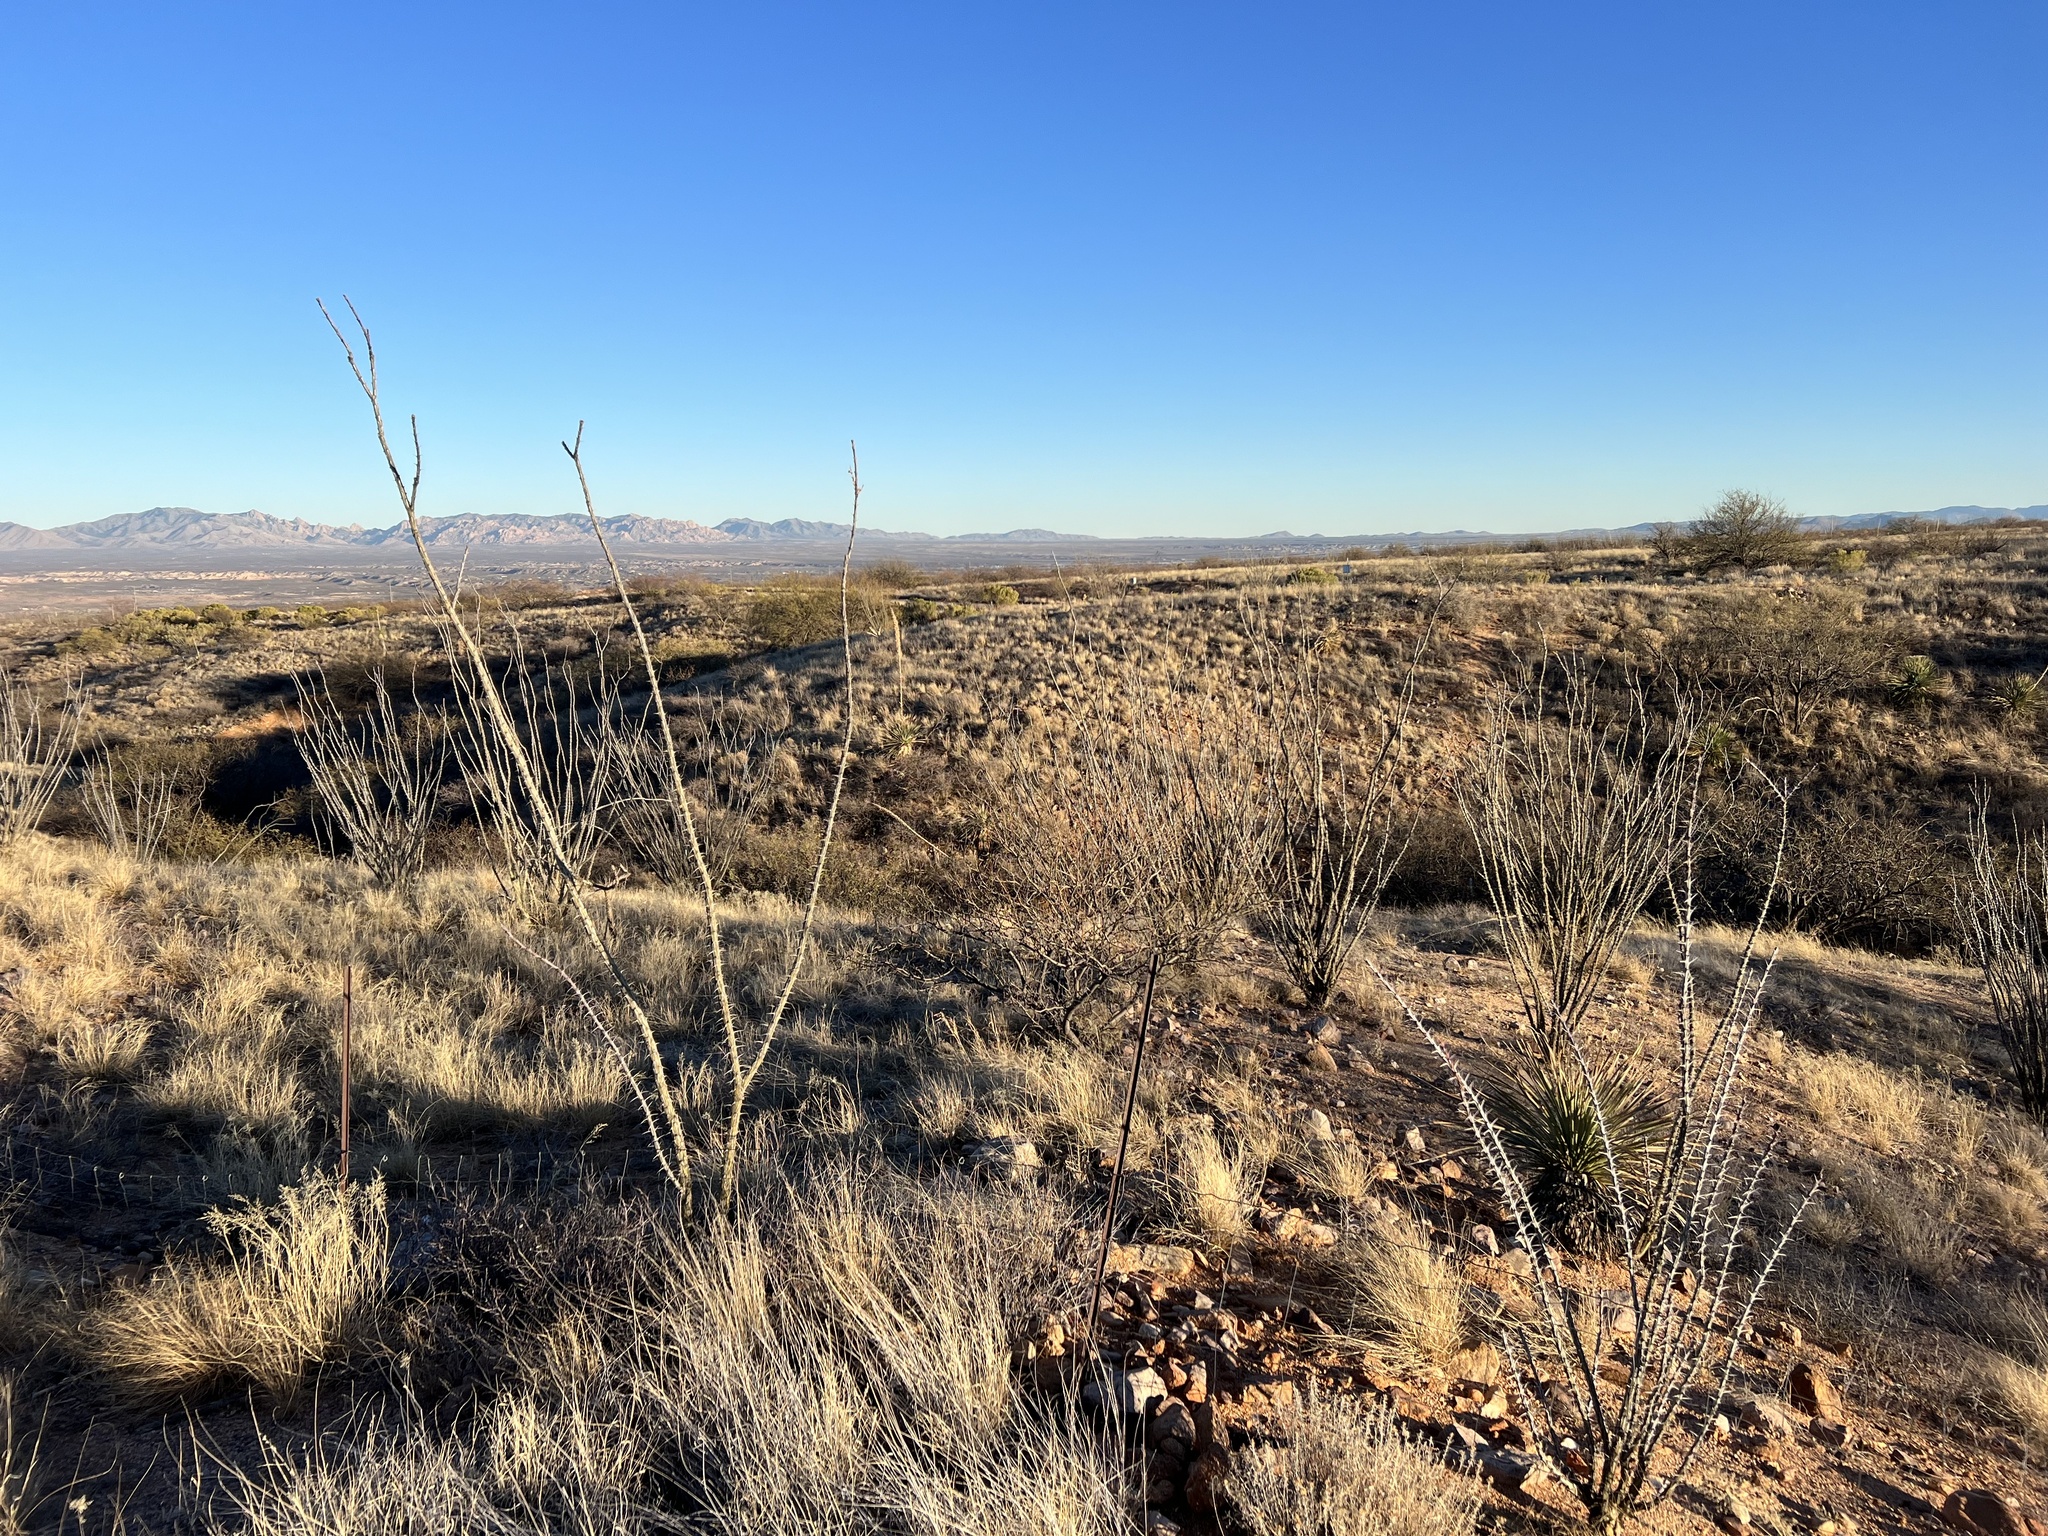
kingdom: Plantae
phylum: Tracheophyta
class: Magnoliopsida
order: Ericales
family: Fouquieriaceae
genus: Fouquieria
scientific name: Fouquieria splendens
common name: Vine-cactus
